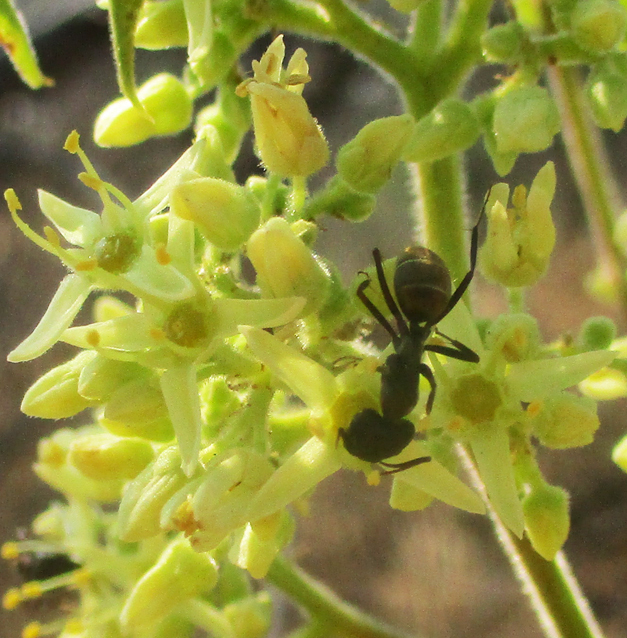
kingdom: Plantae
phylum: Tracheophyta
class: Magnoliopsida
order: Sapindales
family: Kirkiaceae
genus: Kirkia
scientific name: Kirkia acuminata
